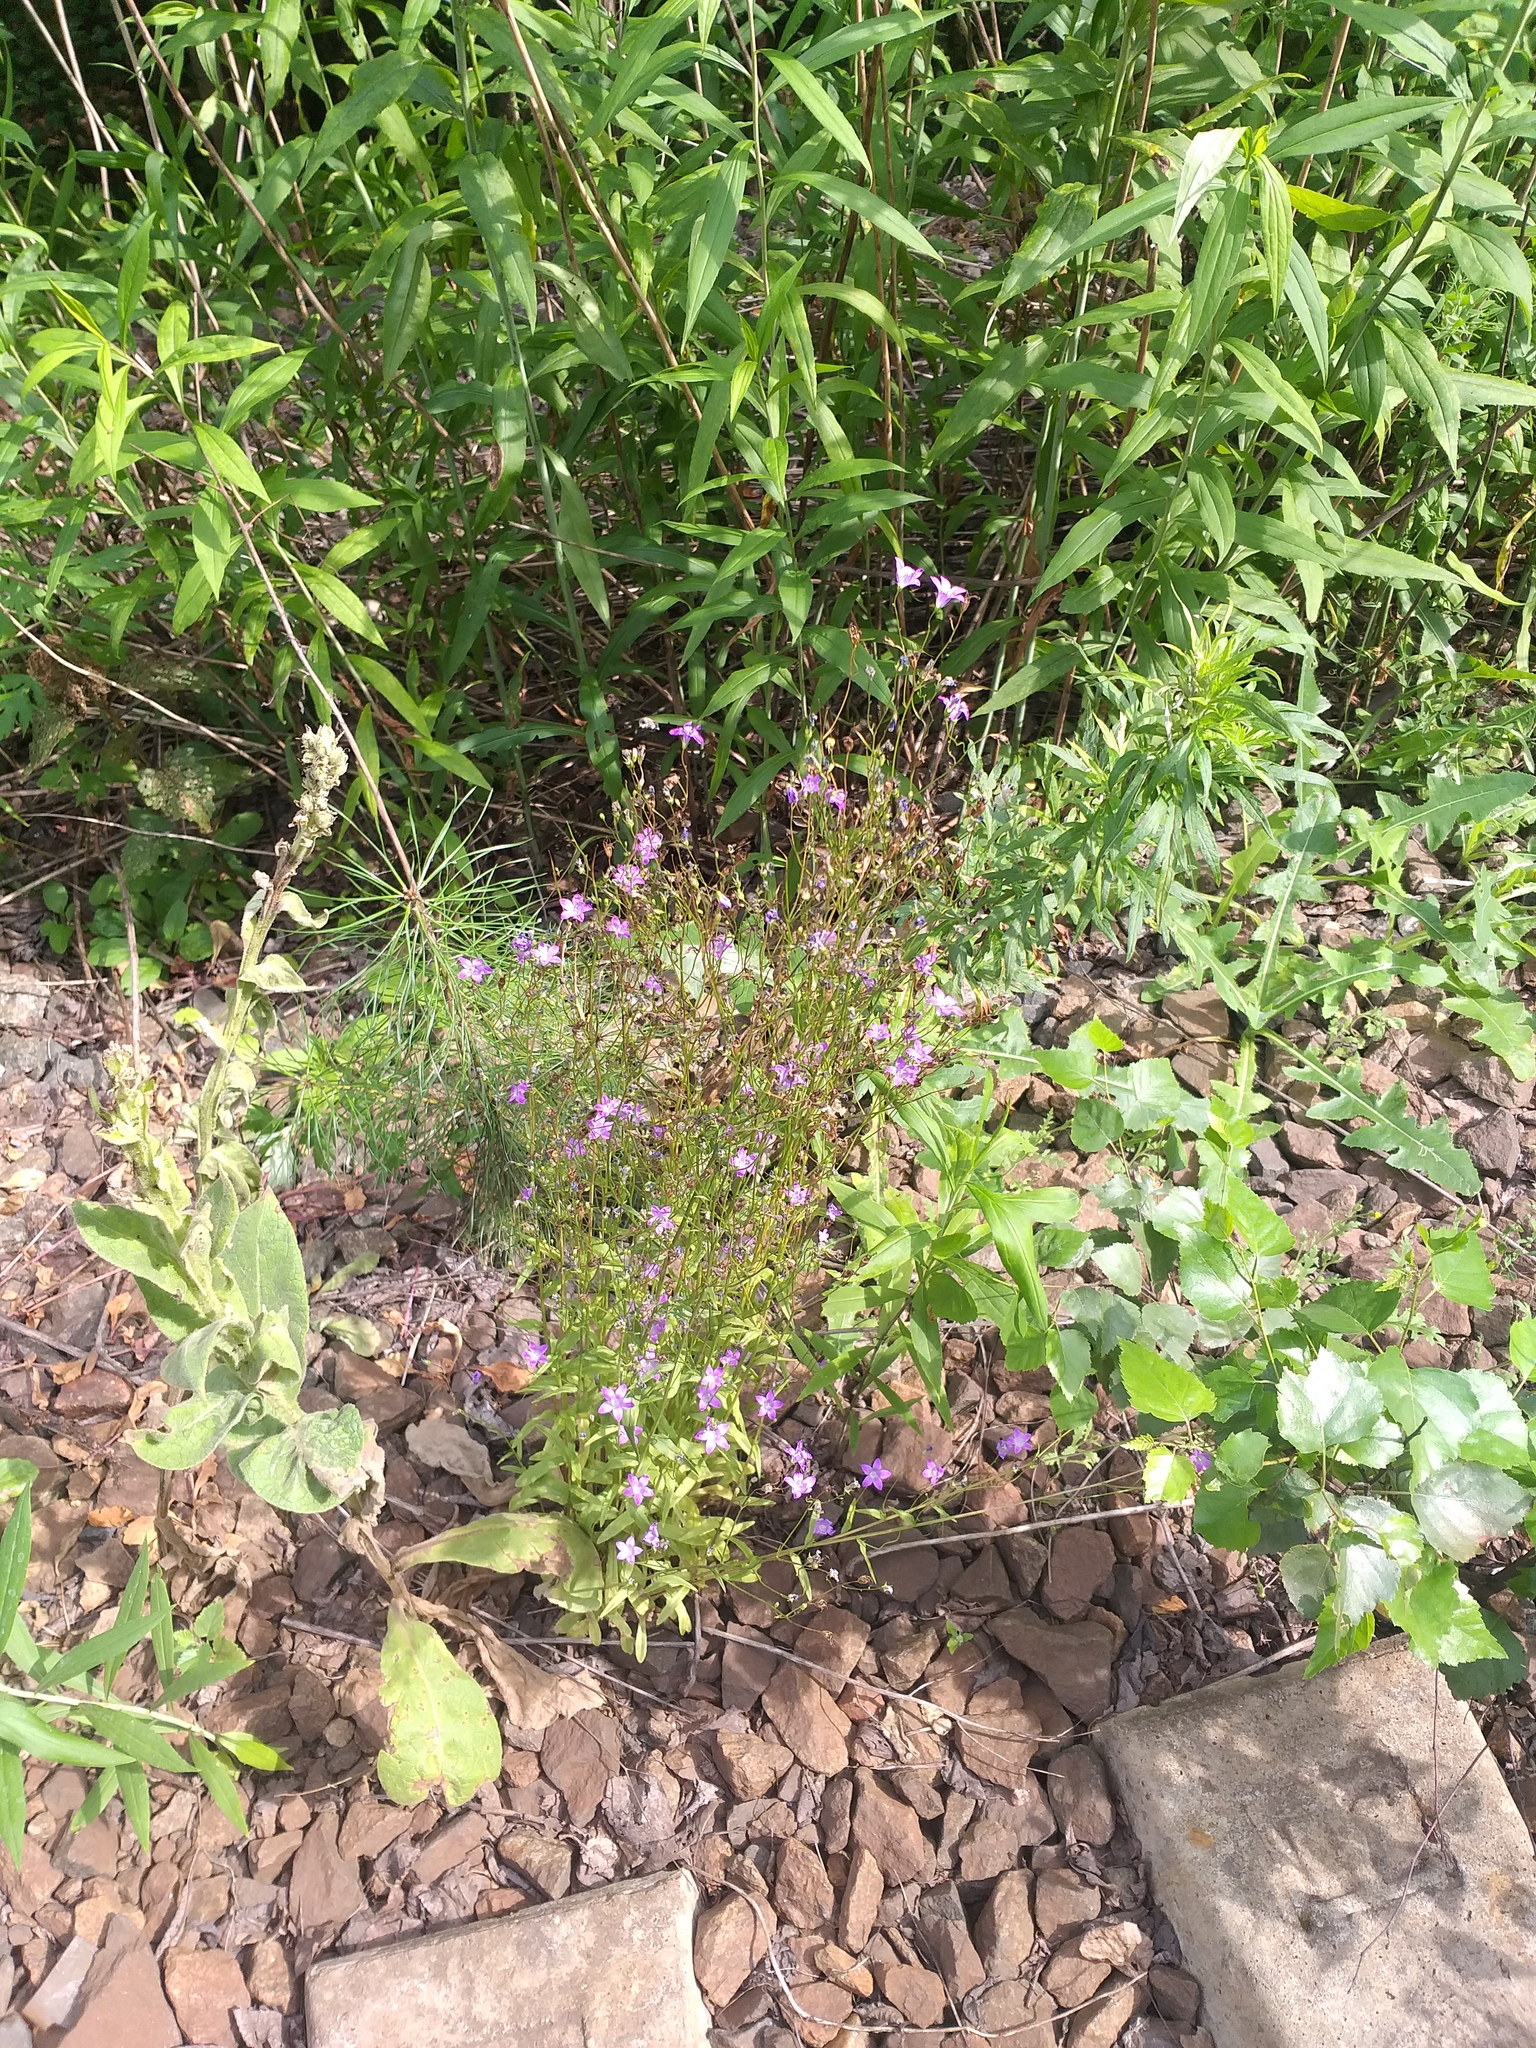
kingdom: Plantae
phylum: Tracheophyta
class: Magnoliopsida
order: Asterales
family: Campanulaceae
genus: Campanula
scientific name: Campanula patula
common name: Spreading bellflower
